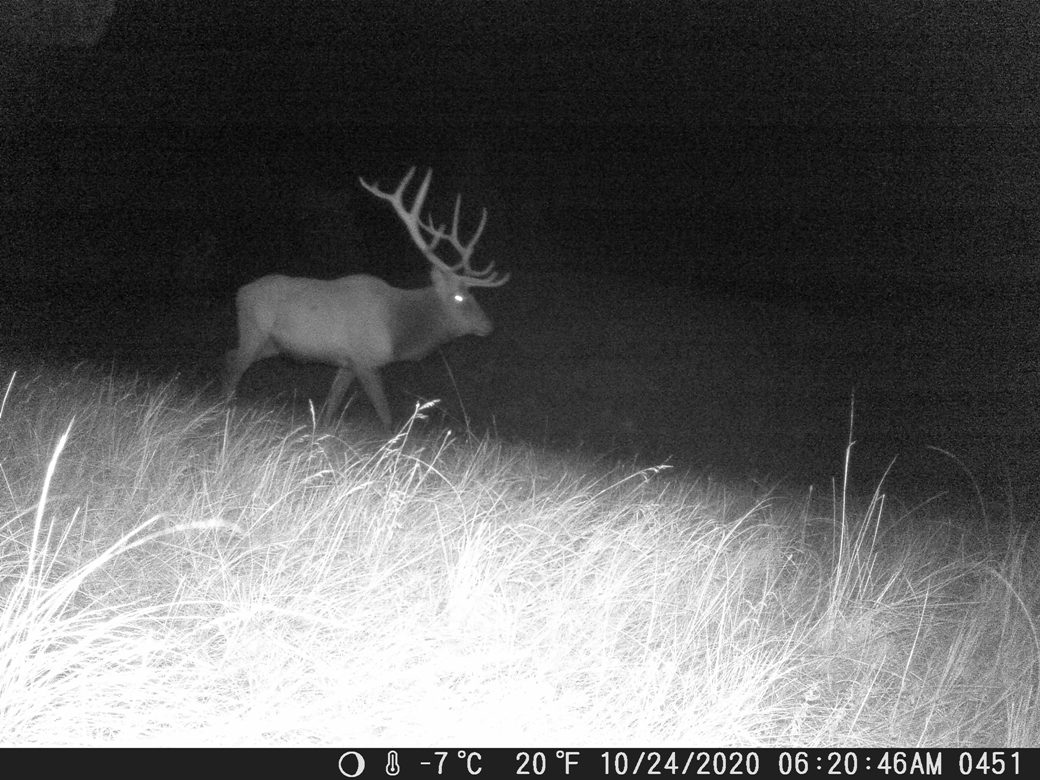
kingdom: Animalia
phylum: Chordata
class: Mammalia
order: Artiodactyla
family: Cervidae
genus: Cervus
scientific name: Cervus elaphus
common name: Red deer
